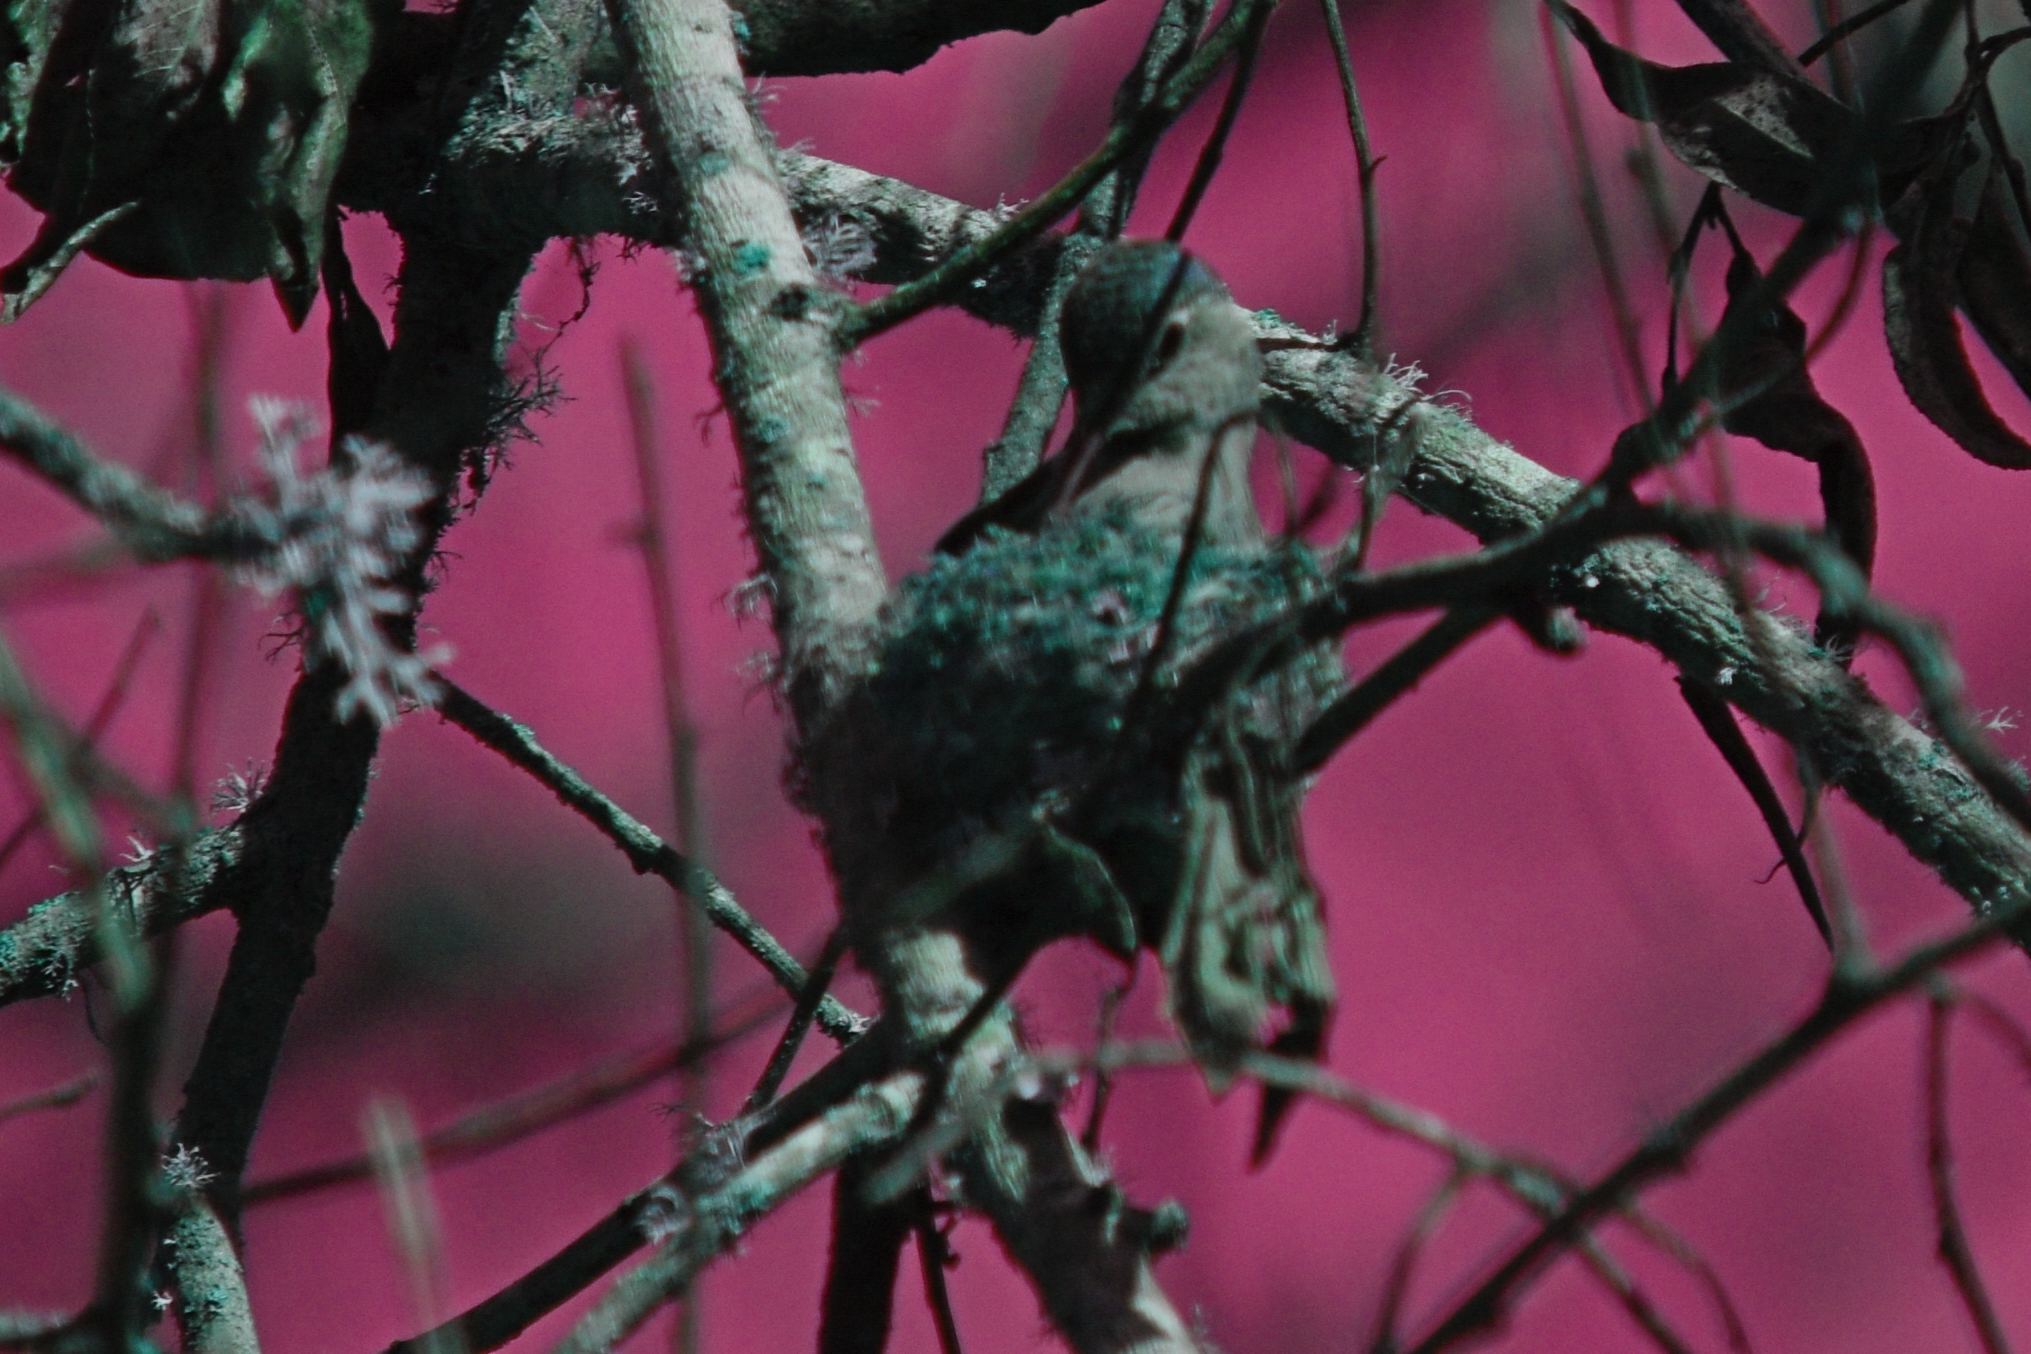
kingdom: Animalia
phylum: Chordata
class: Aves
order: Apodiformes
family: Trochilidae
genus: Calypte
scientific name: Calypte anna
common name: Anna's hummingbird
